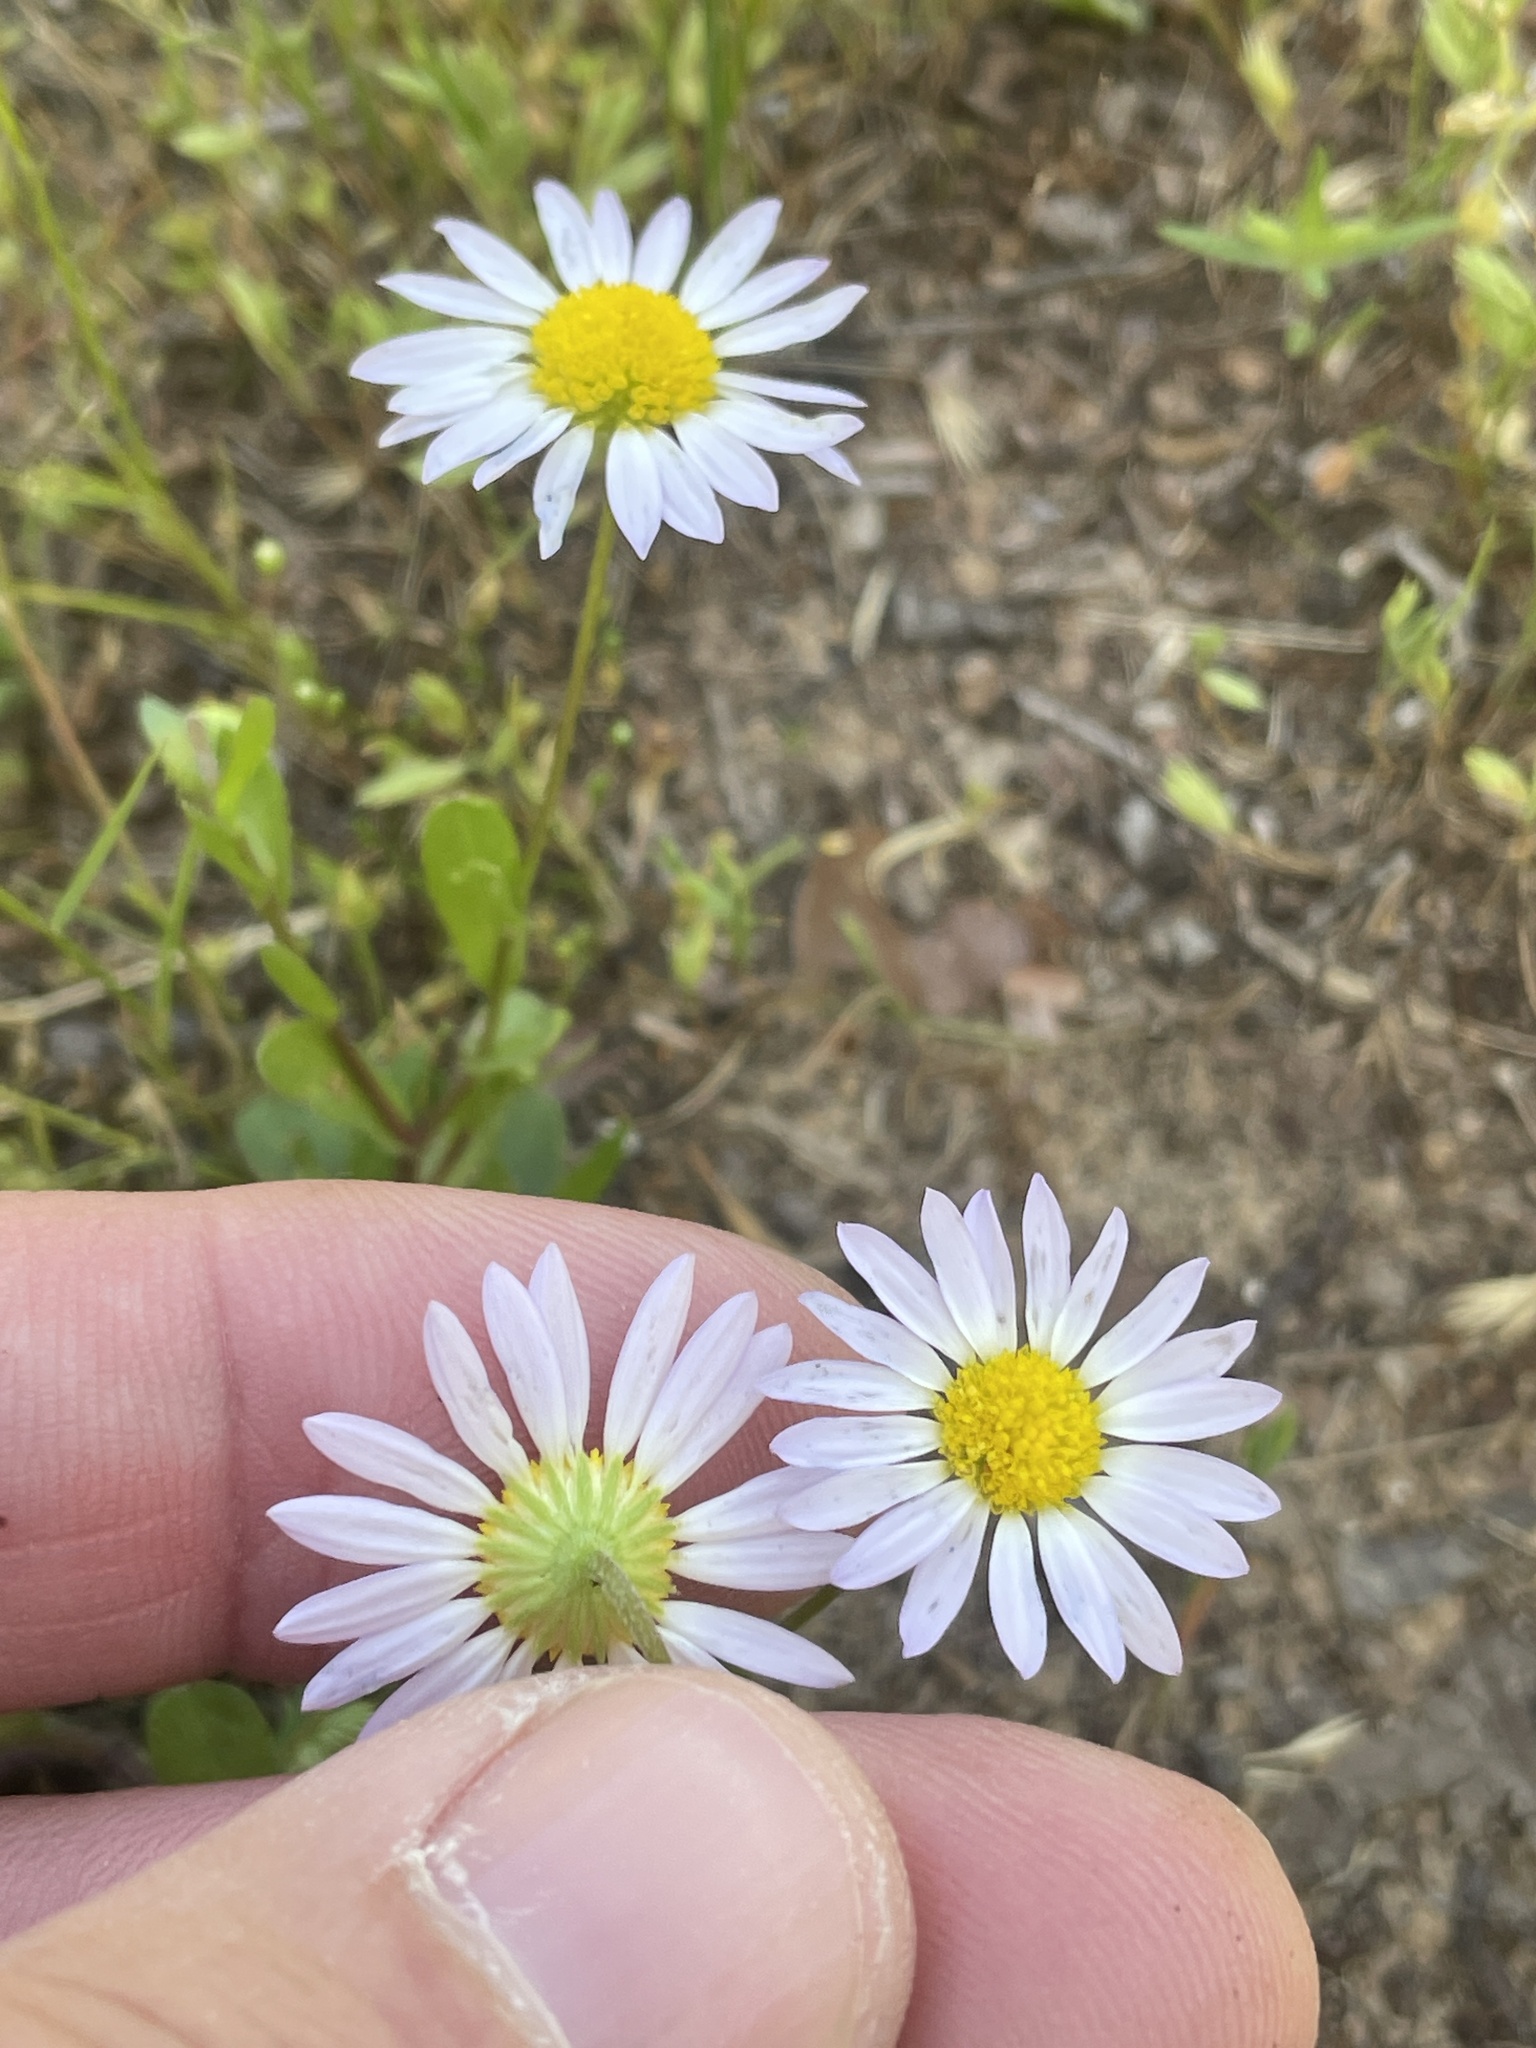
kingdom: Plantae
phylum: Tracheophyta
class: Magnoliopsida
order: Asterales
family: Asteraceae
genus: Astranthium
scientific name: Astranthium ciliatum
